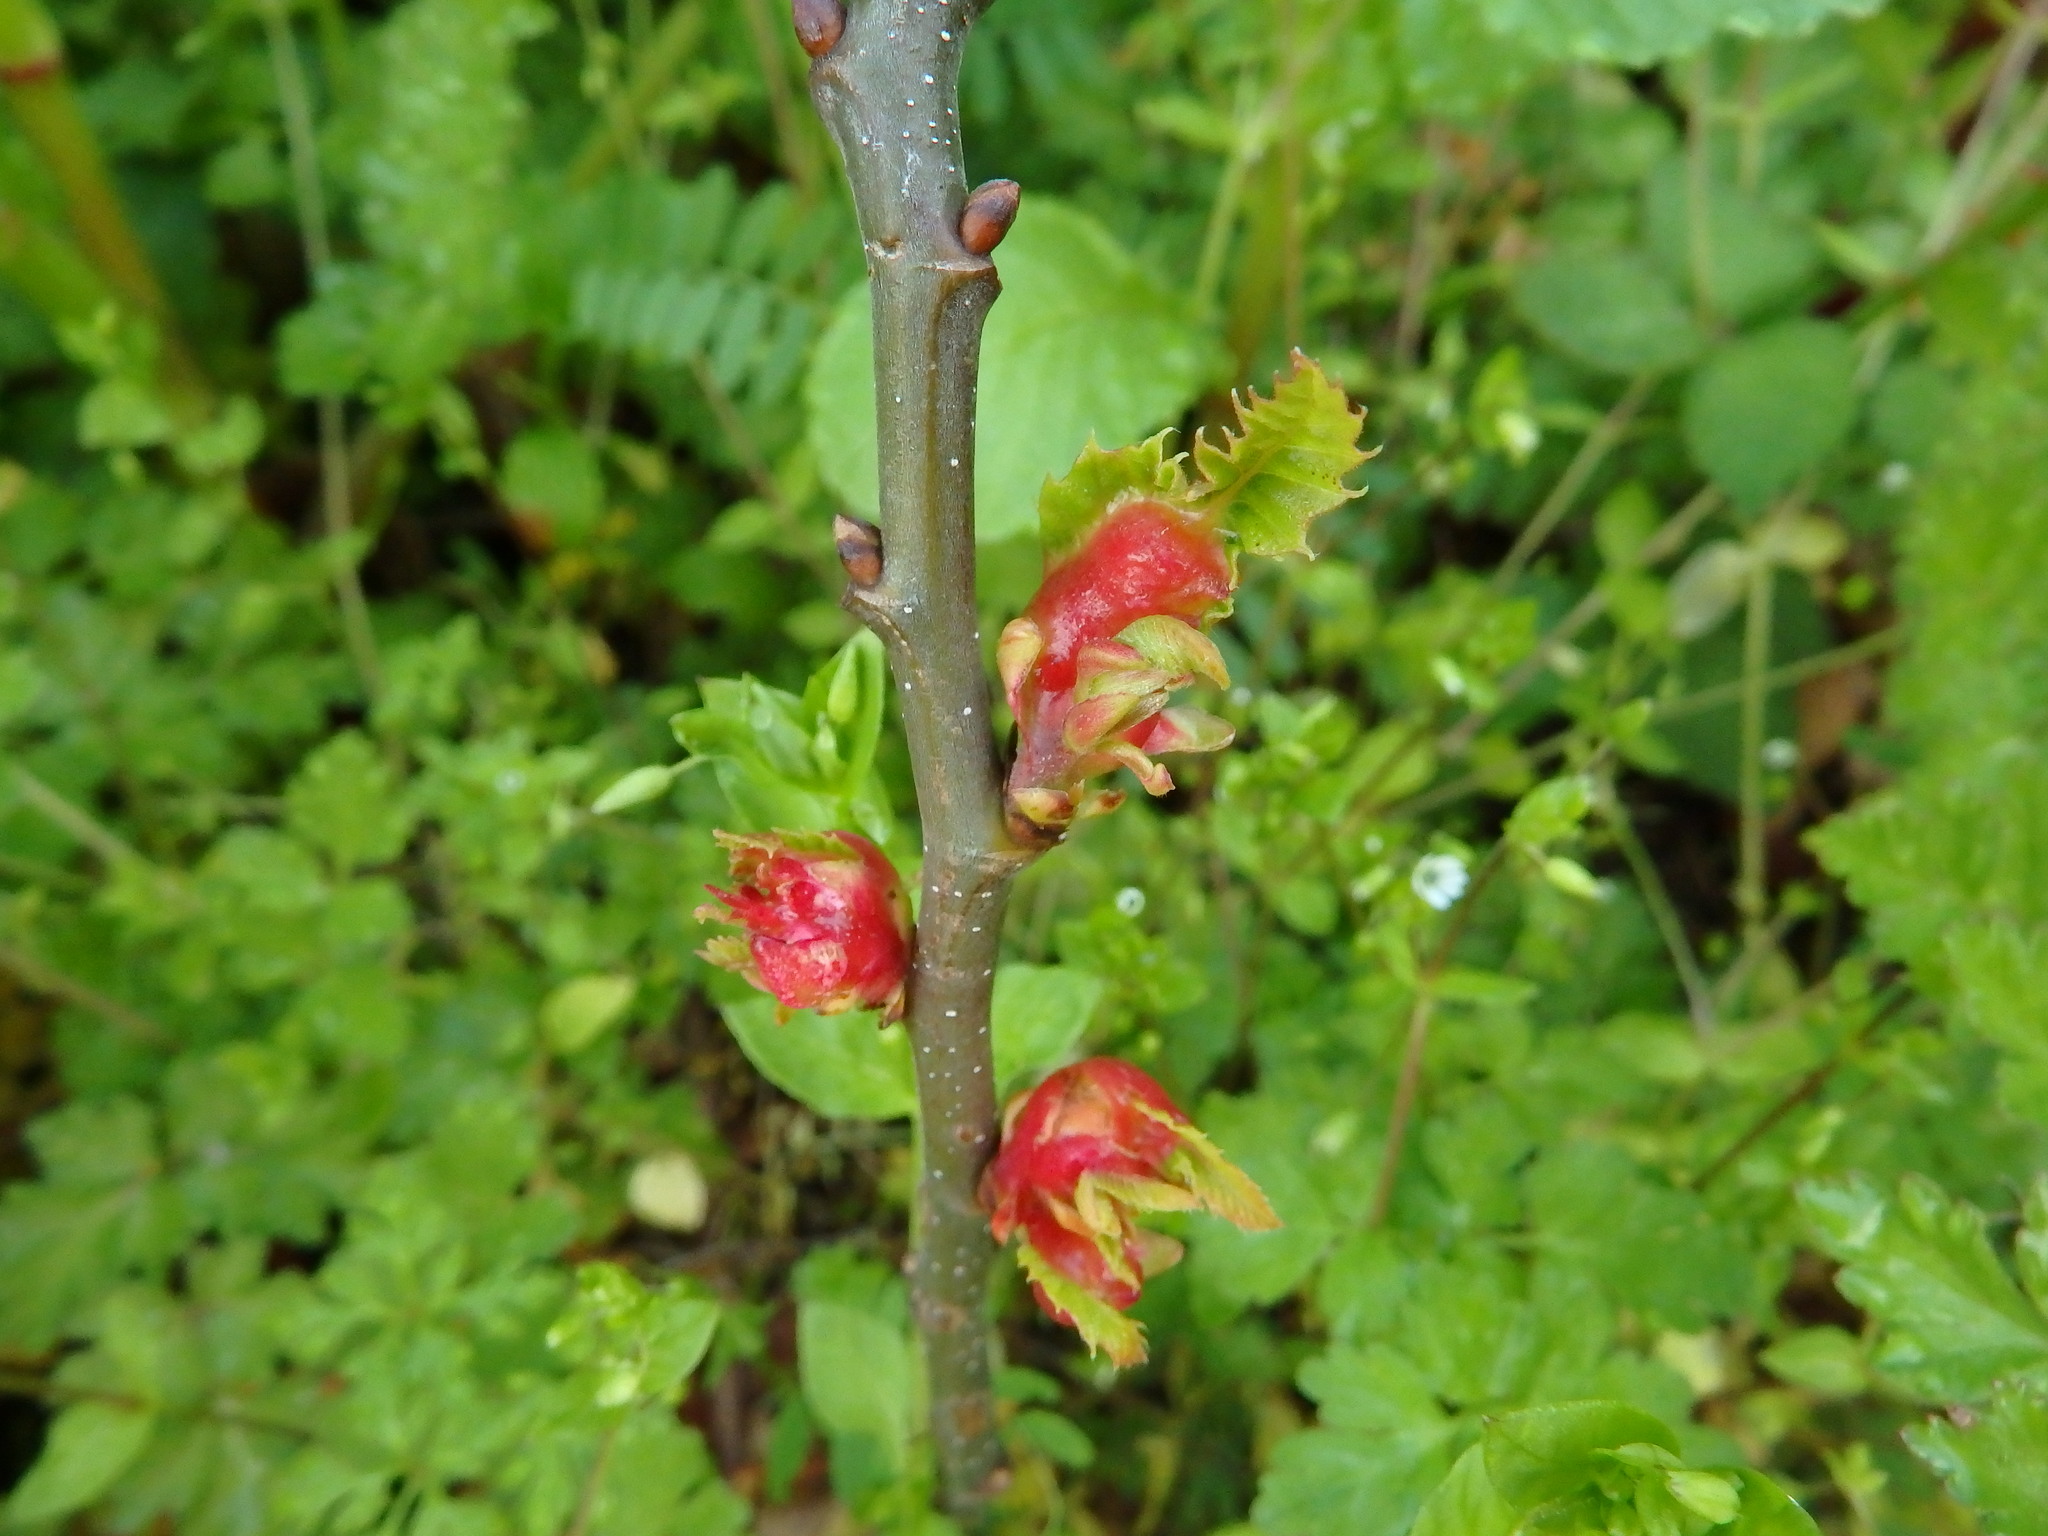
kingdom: Animalia
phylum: Arthropoda
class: Insecta
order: Hymenoptera
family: Cynipidae
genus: Dryocosmus
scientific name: Dryocosmus kuriphilus
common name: Asian chestnut gall wasp
